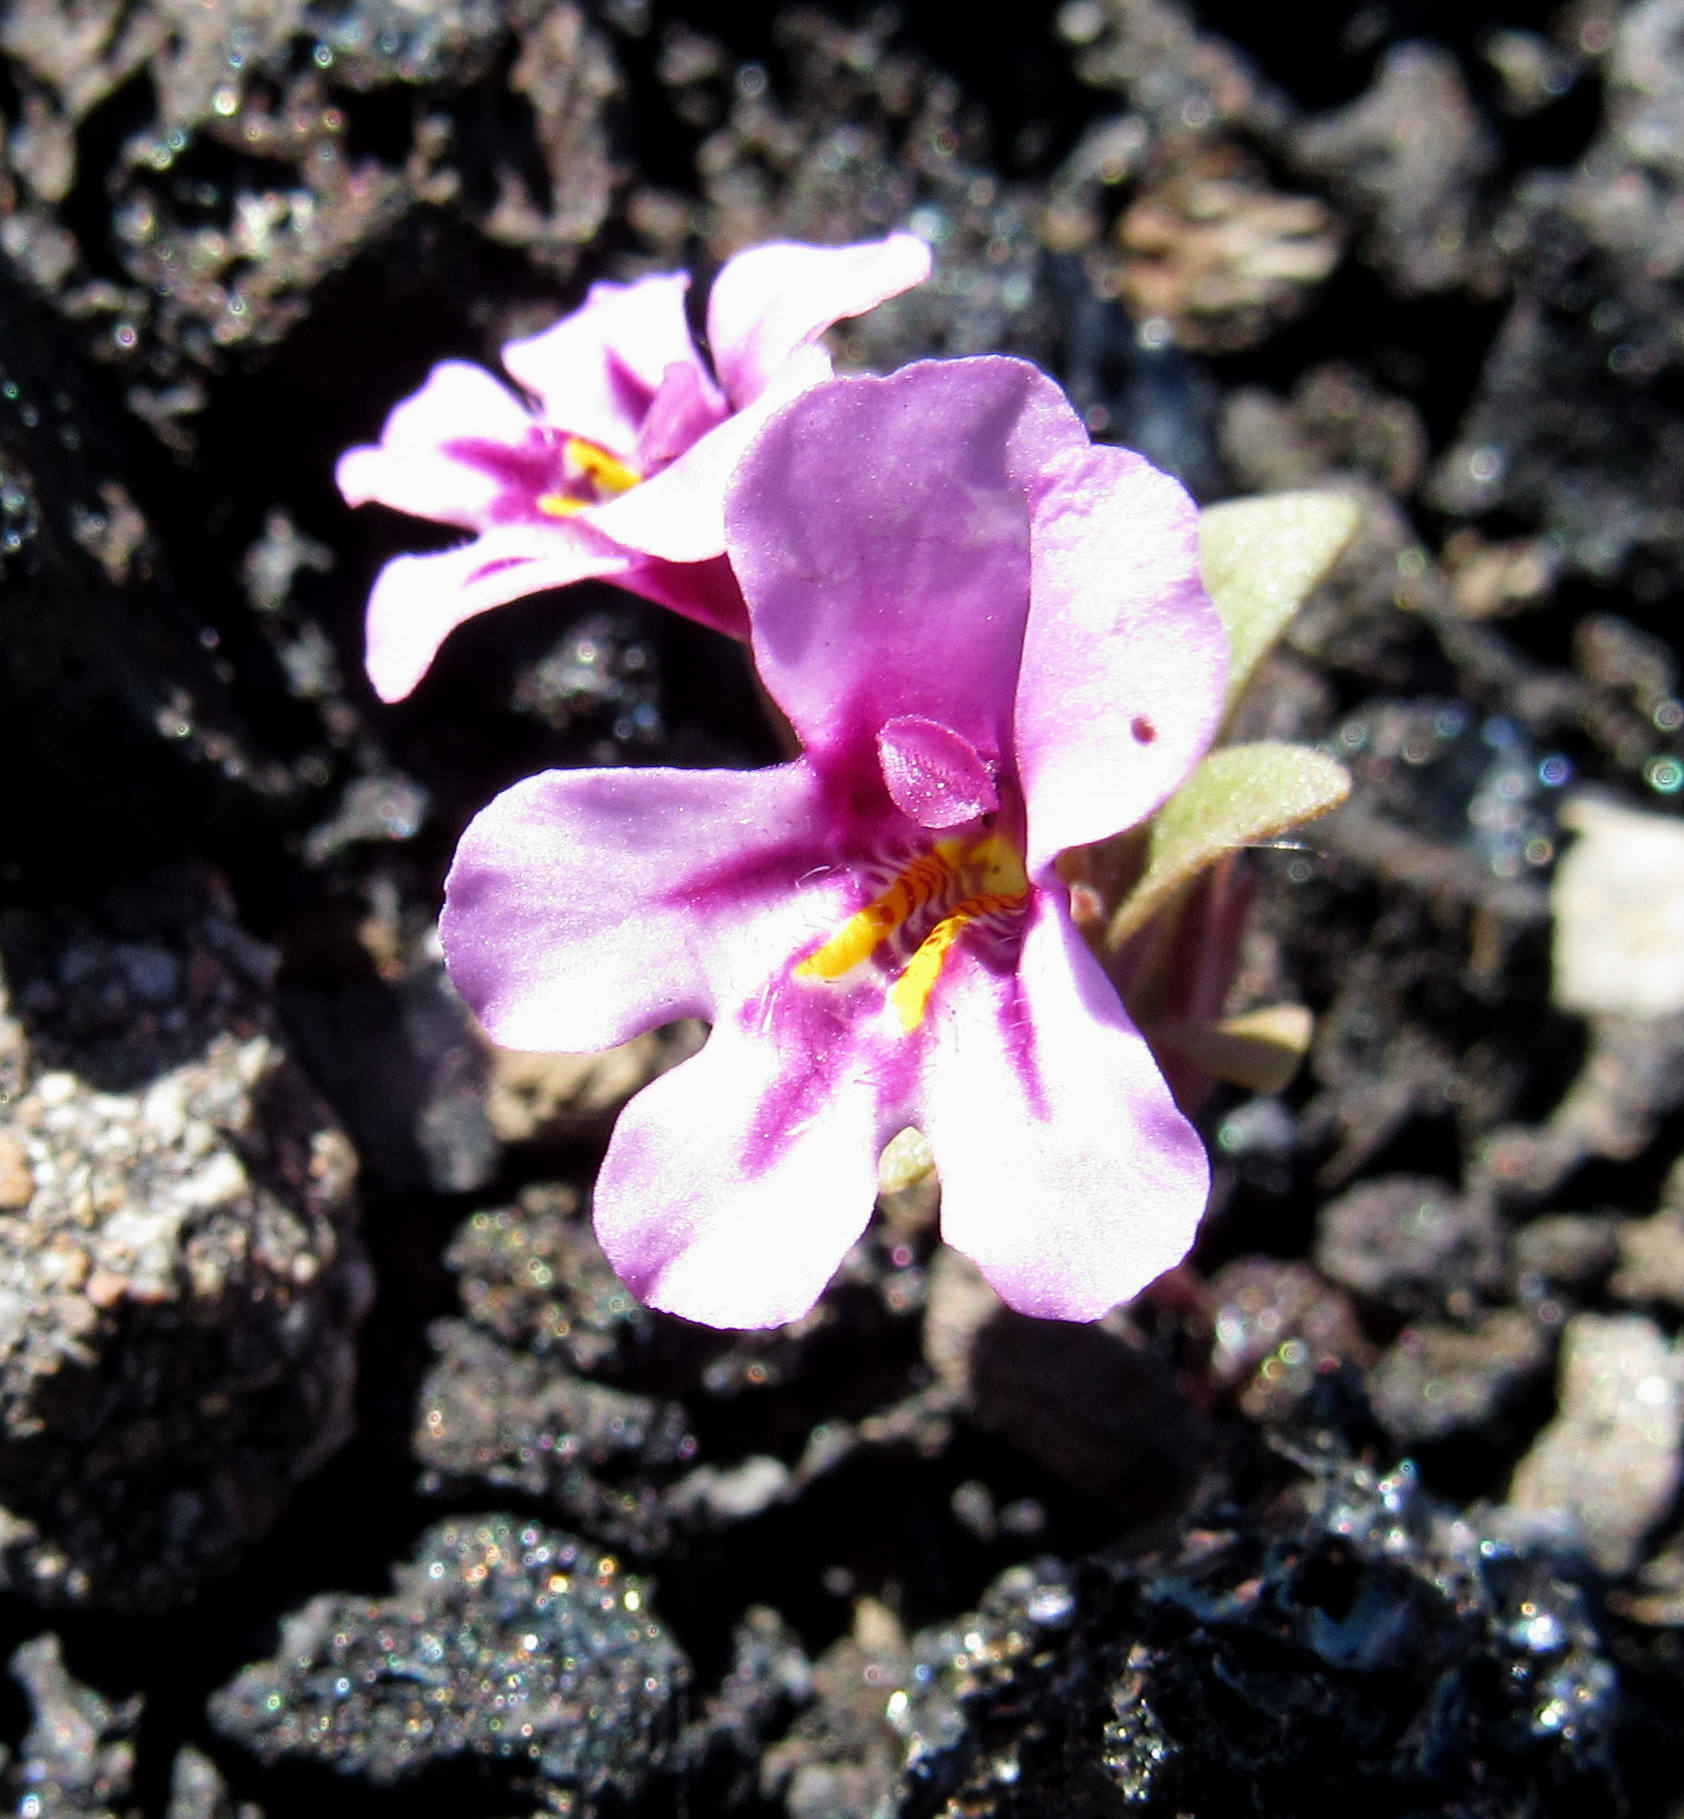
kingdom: Plantae
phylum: Tracheophyta
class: Magnoliopsida
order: Lamiales
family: Phrymaceae
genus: Diplacus
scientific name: Diplacus nanus
